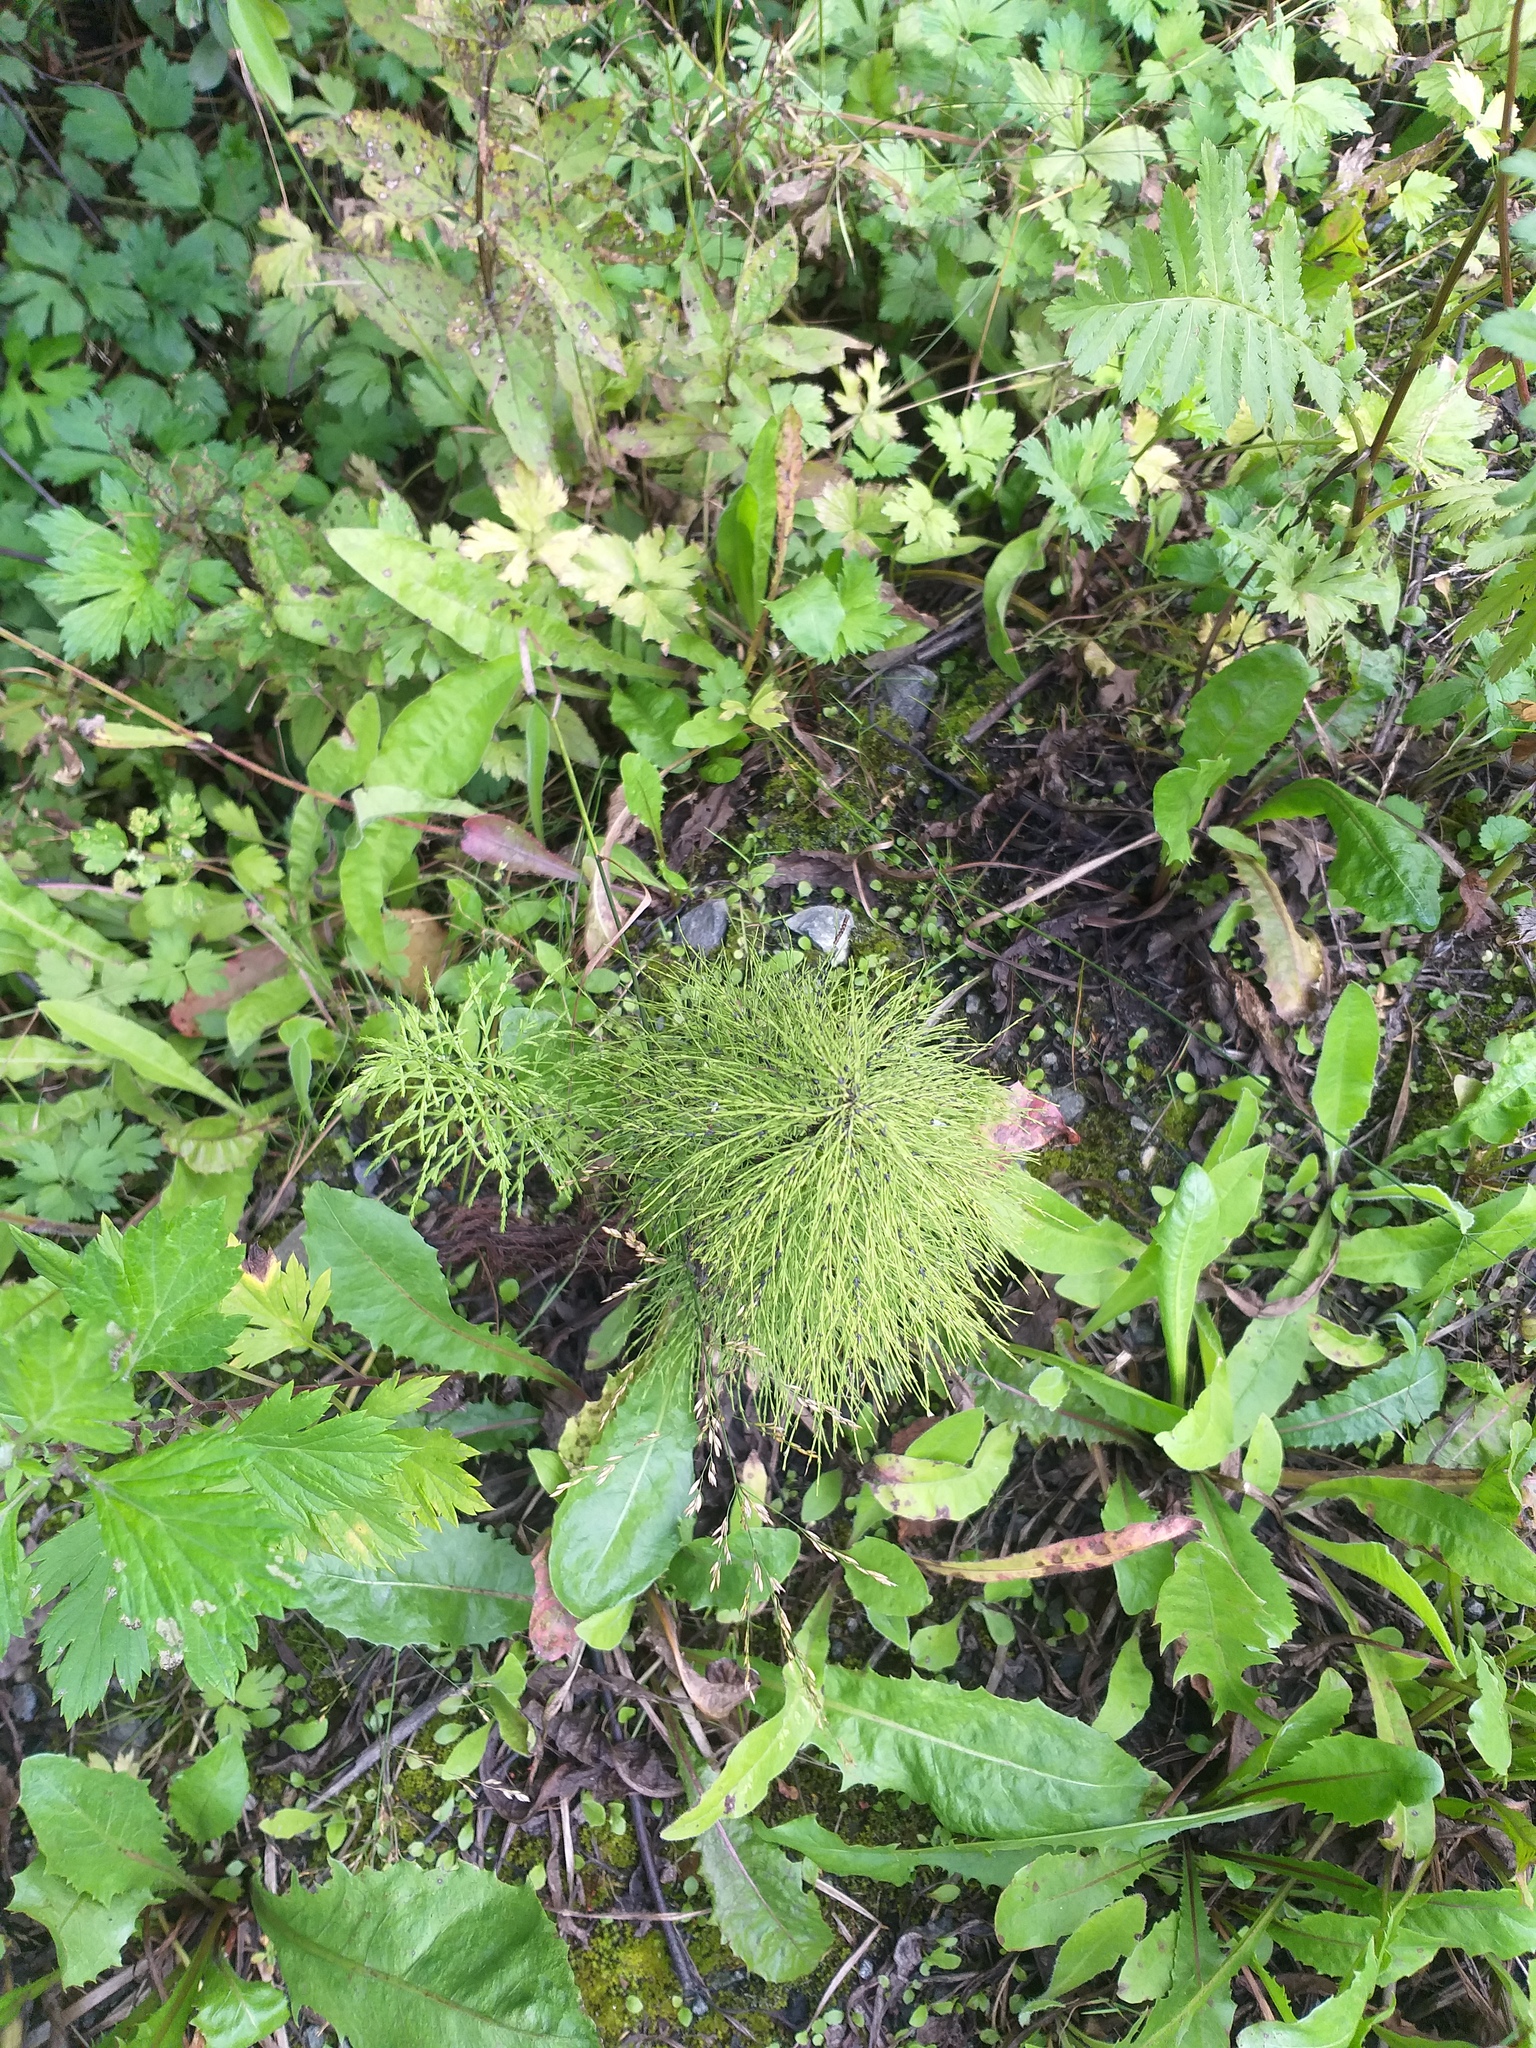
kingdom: Plantae
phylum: Tracheophyta
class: Polypodiopsida
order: Equisetales
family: Equisetaceae
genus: Equisetum
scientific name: Equisetum sylvaticum
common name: Wood horsetail
